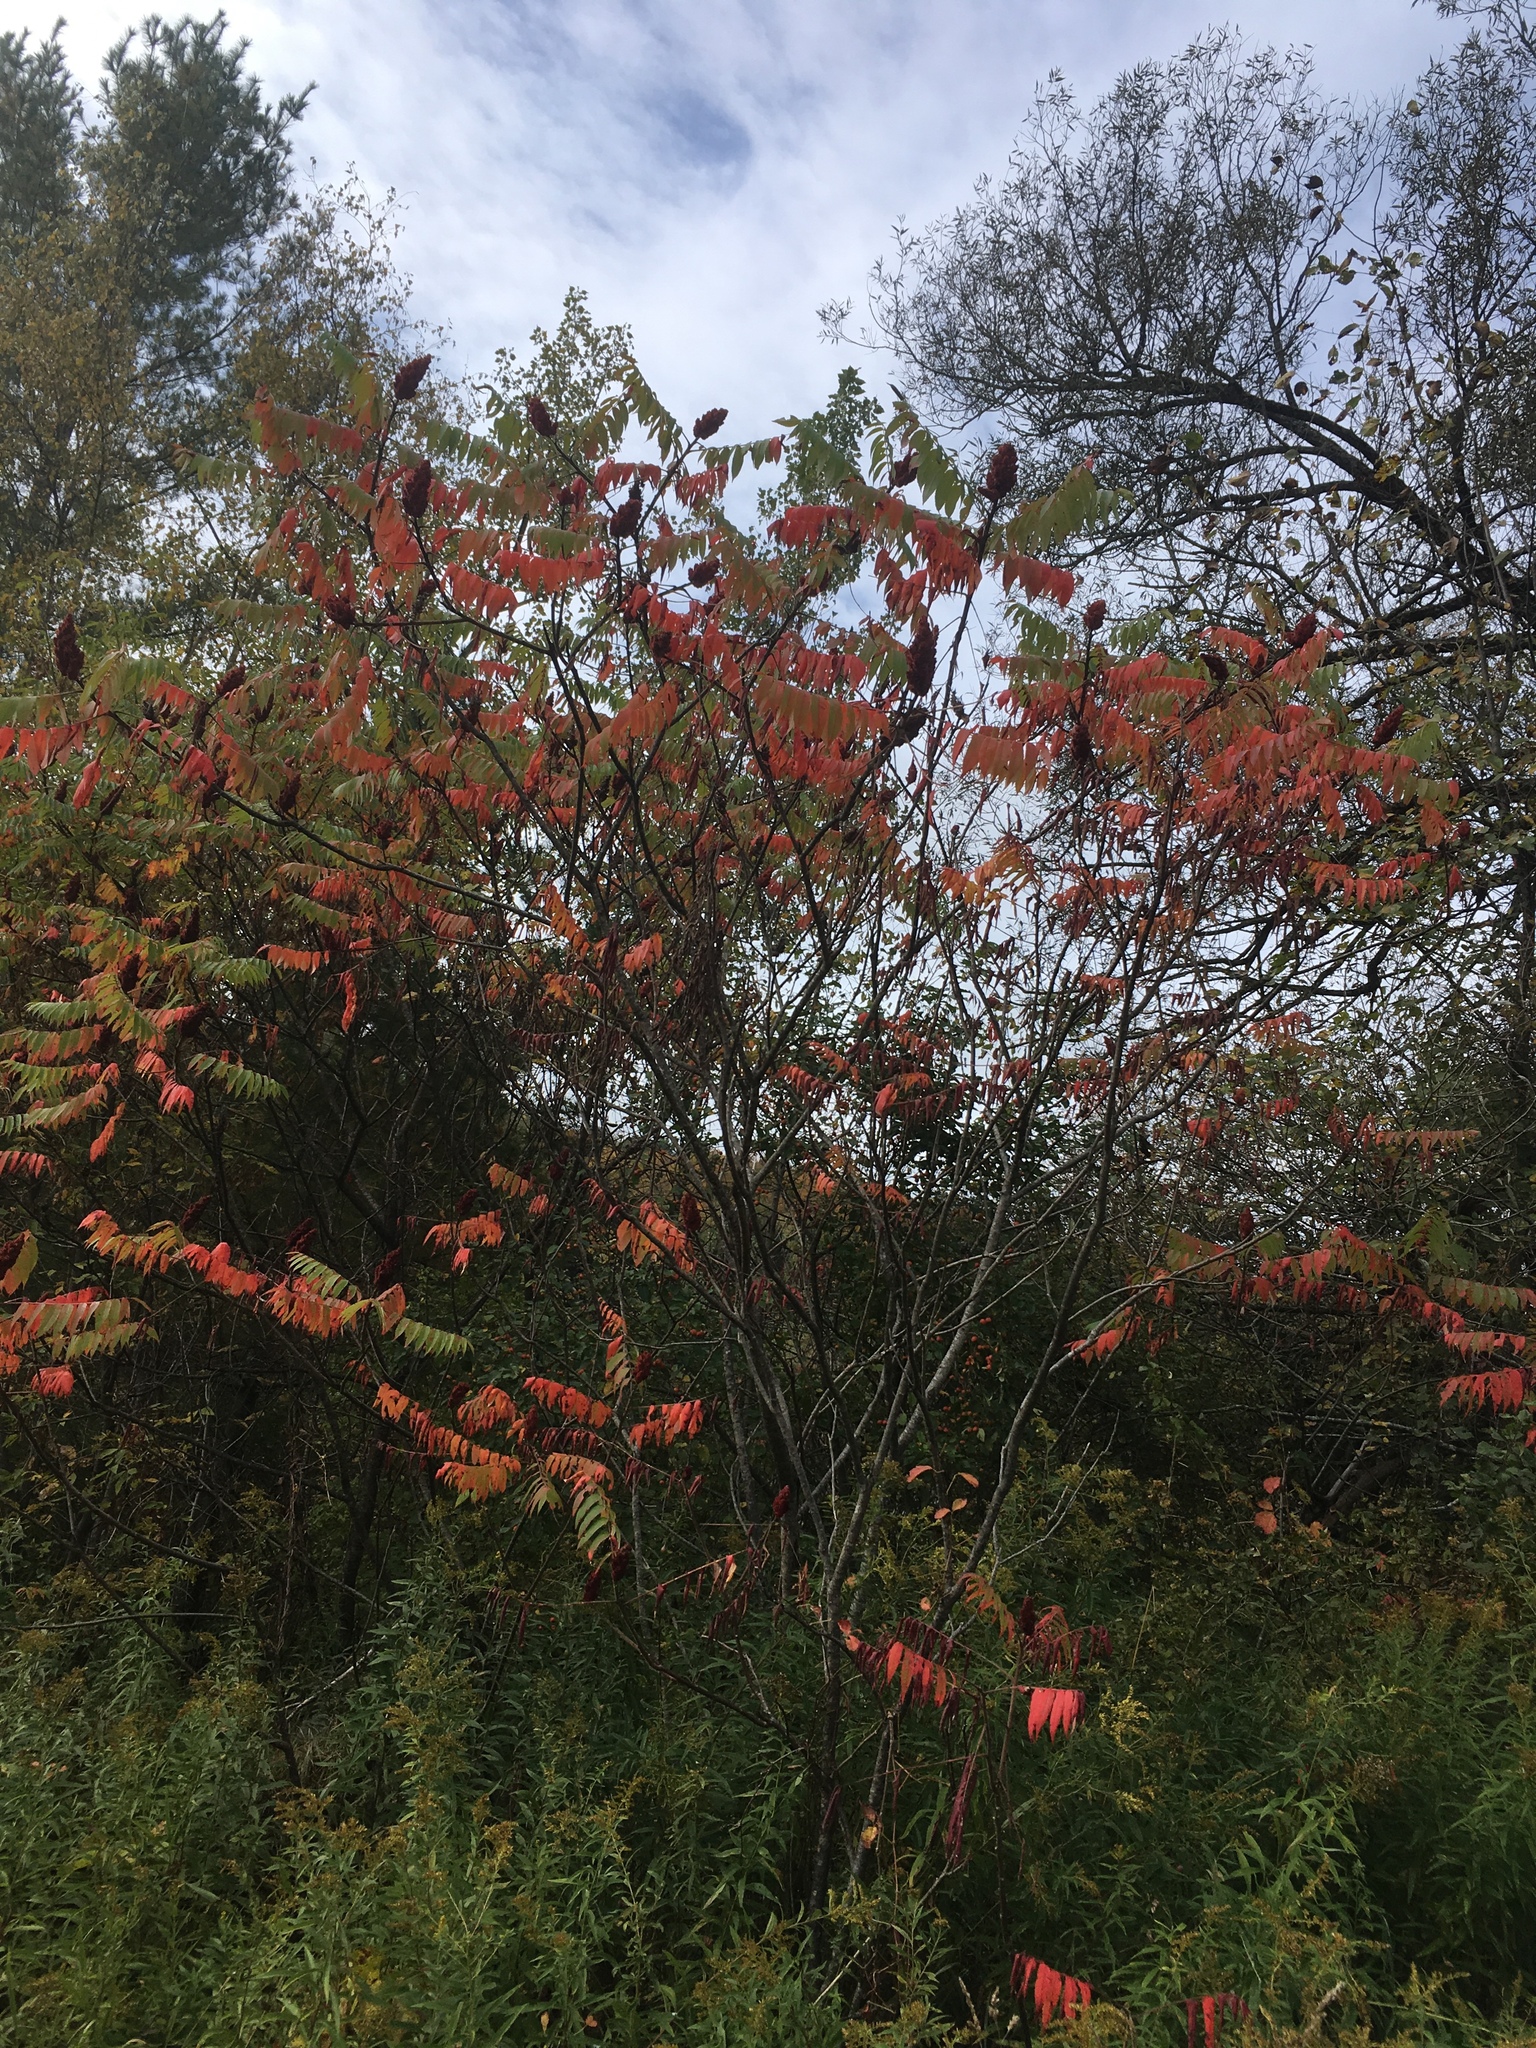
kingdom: Plantae
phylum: Tracheophyta
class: Magnoliopsida
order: Sapindales
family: Anacardiaceae
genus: Rhus
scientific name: Rhus typhina
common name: Staghorn sumac
